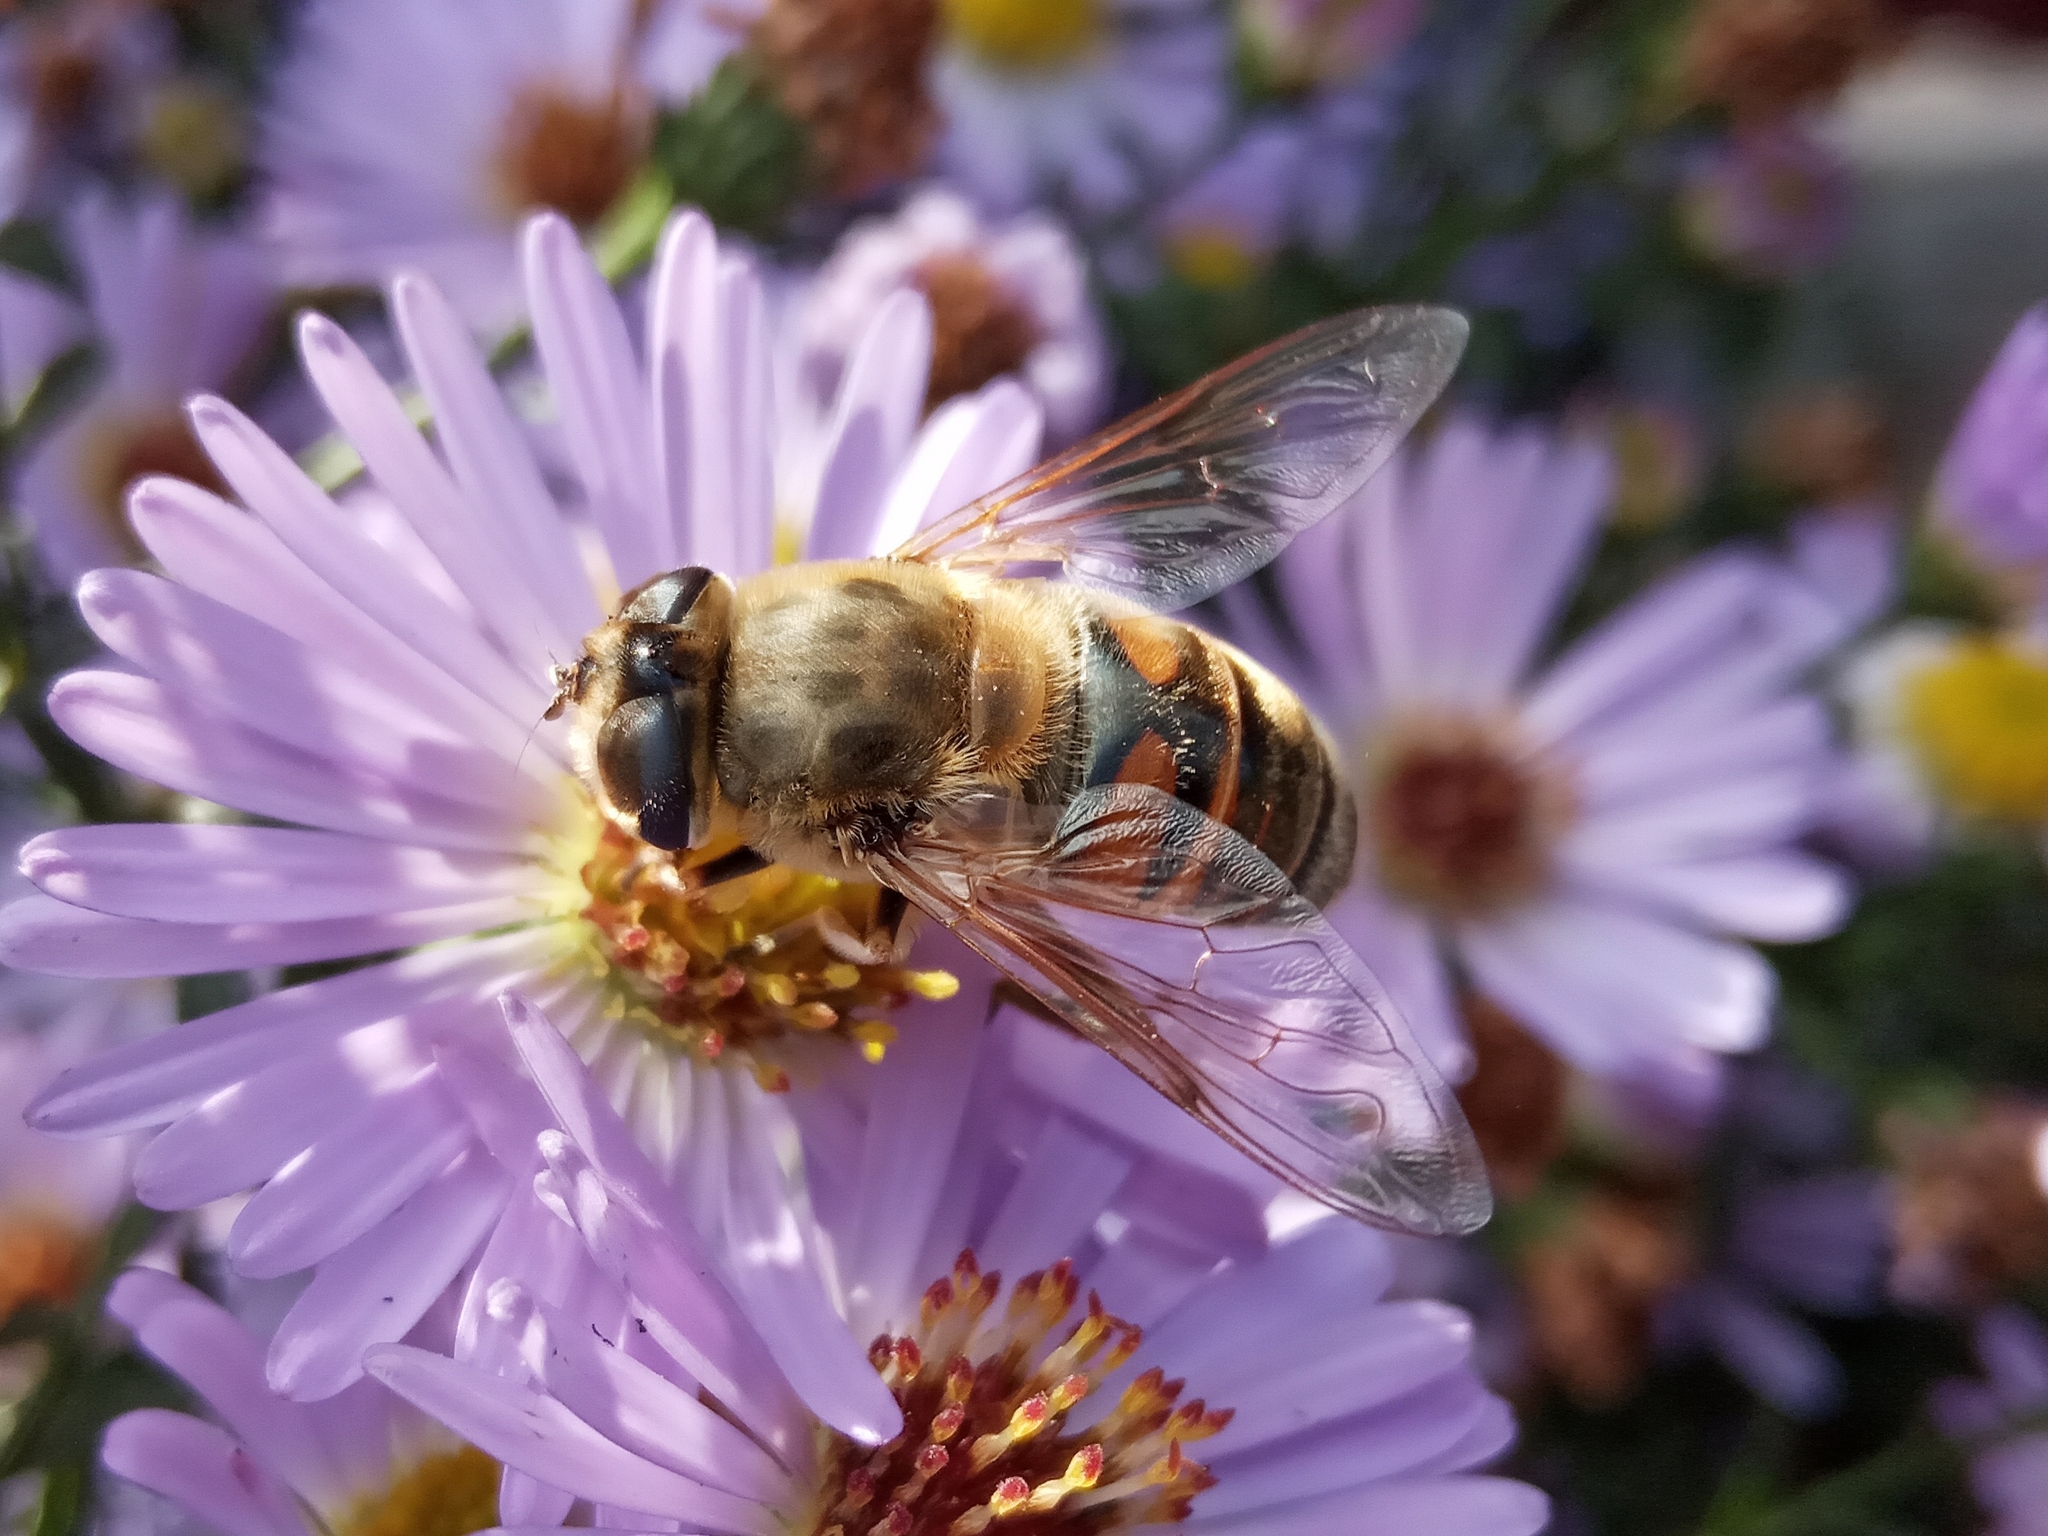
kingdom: Animalia
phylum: Arthropoda
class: Insecta
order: Diptera
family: Syrphidae
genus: Eristalis
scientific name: Eristalis tenax
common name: Drone fly
